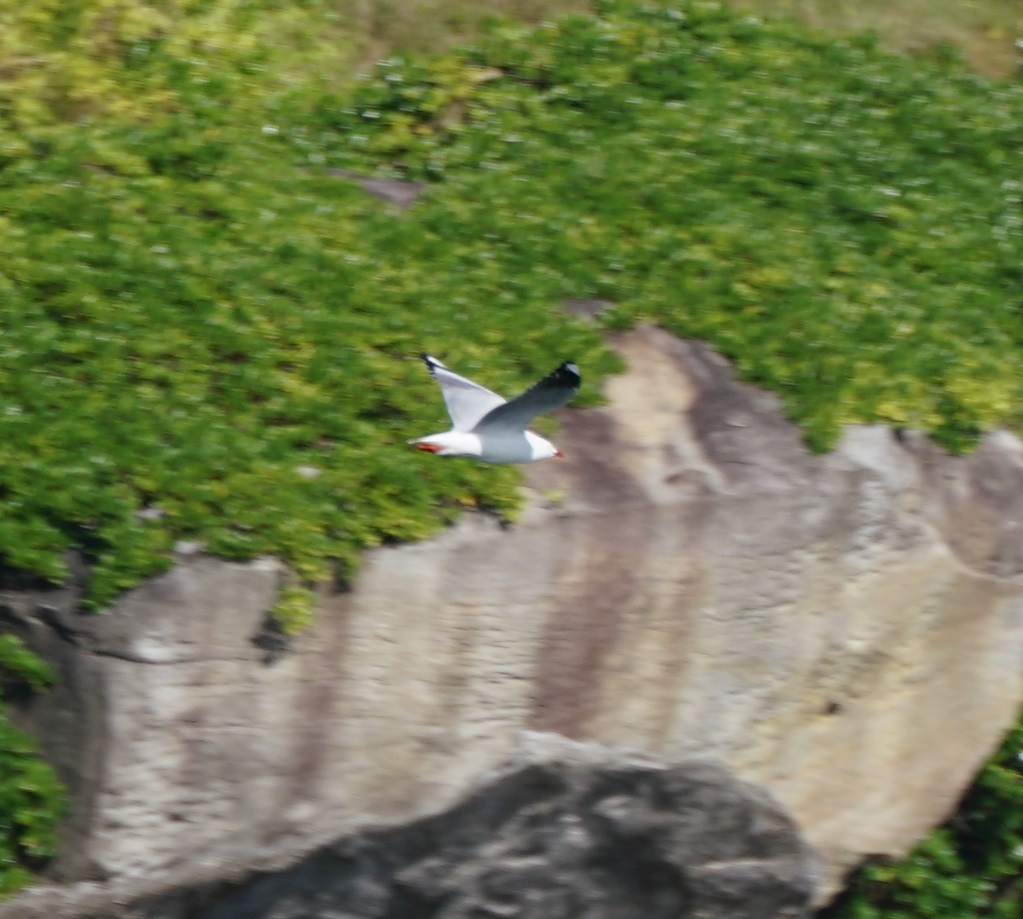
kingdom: Animalia
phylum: Chordata
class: Aves
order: Charadriiformes
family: Laridae
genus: Chroicocephalus
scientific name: Chroicocephalus novaehollandiae
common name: Silver gull
